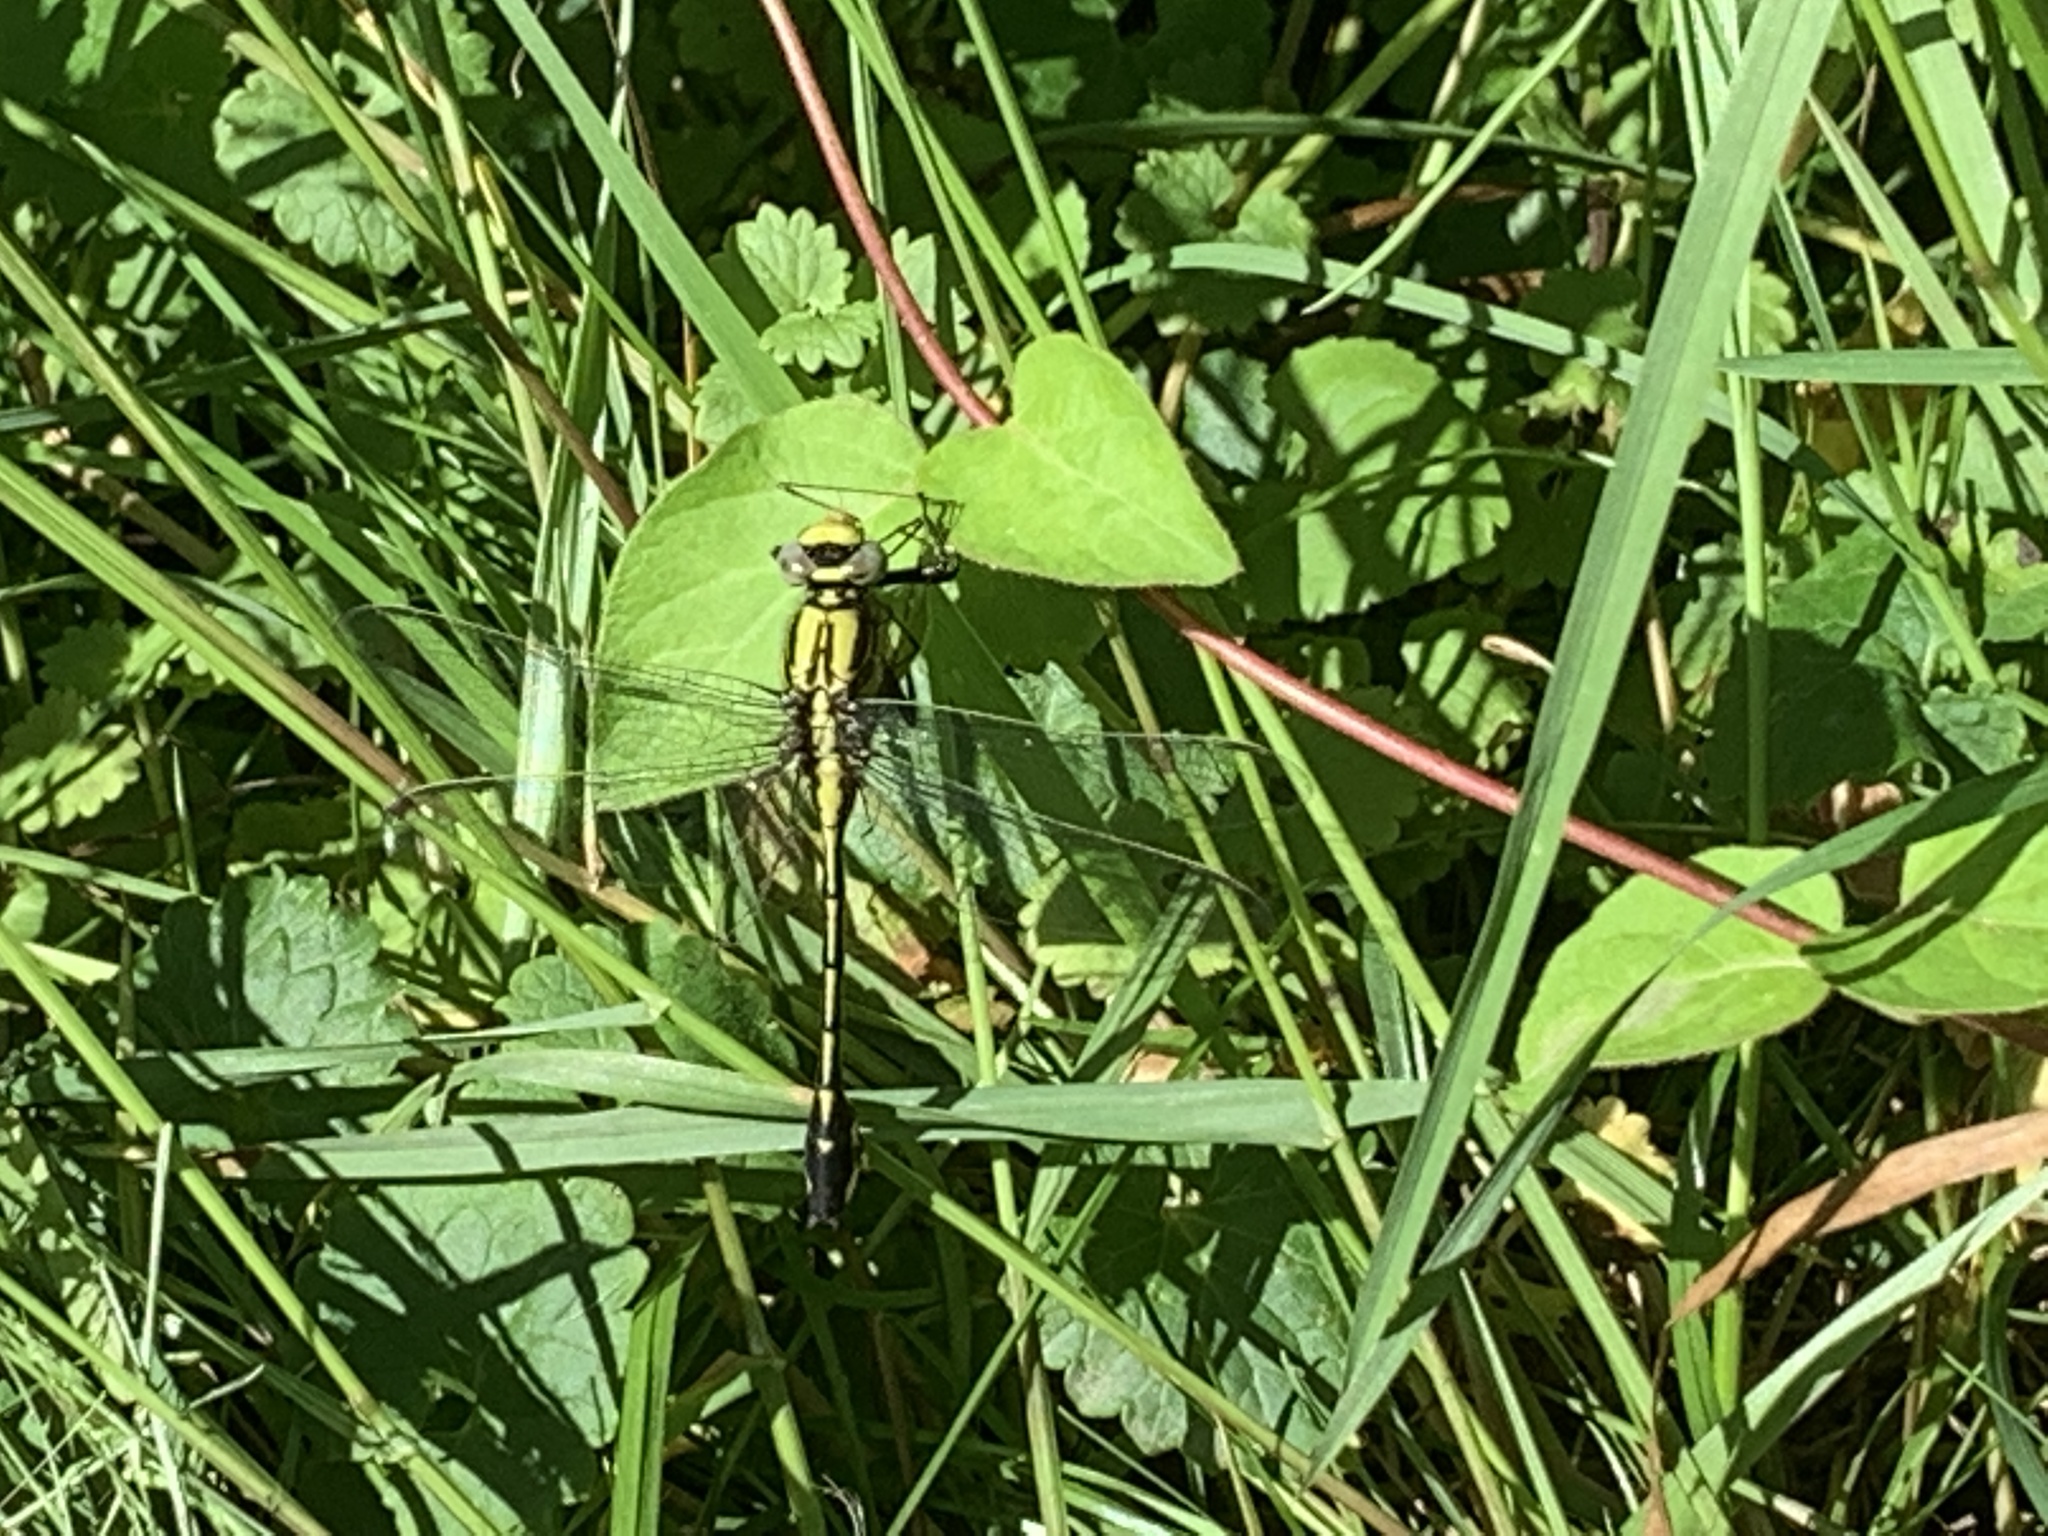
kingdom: Animalia
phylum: Arthropoda
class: Insecta
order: Odonata
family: Gomphidae
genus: Gomphurus
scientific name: Gomphurus fraternus
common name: Midland clubtail
